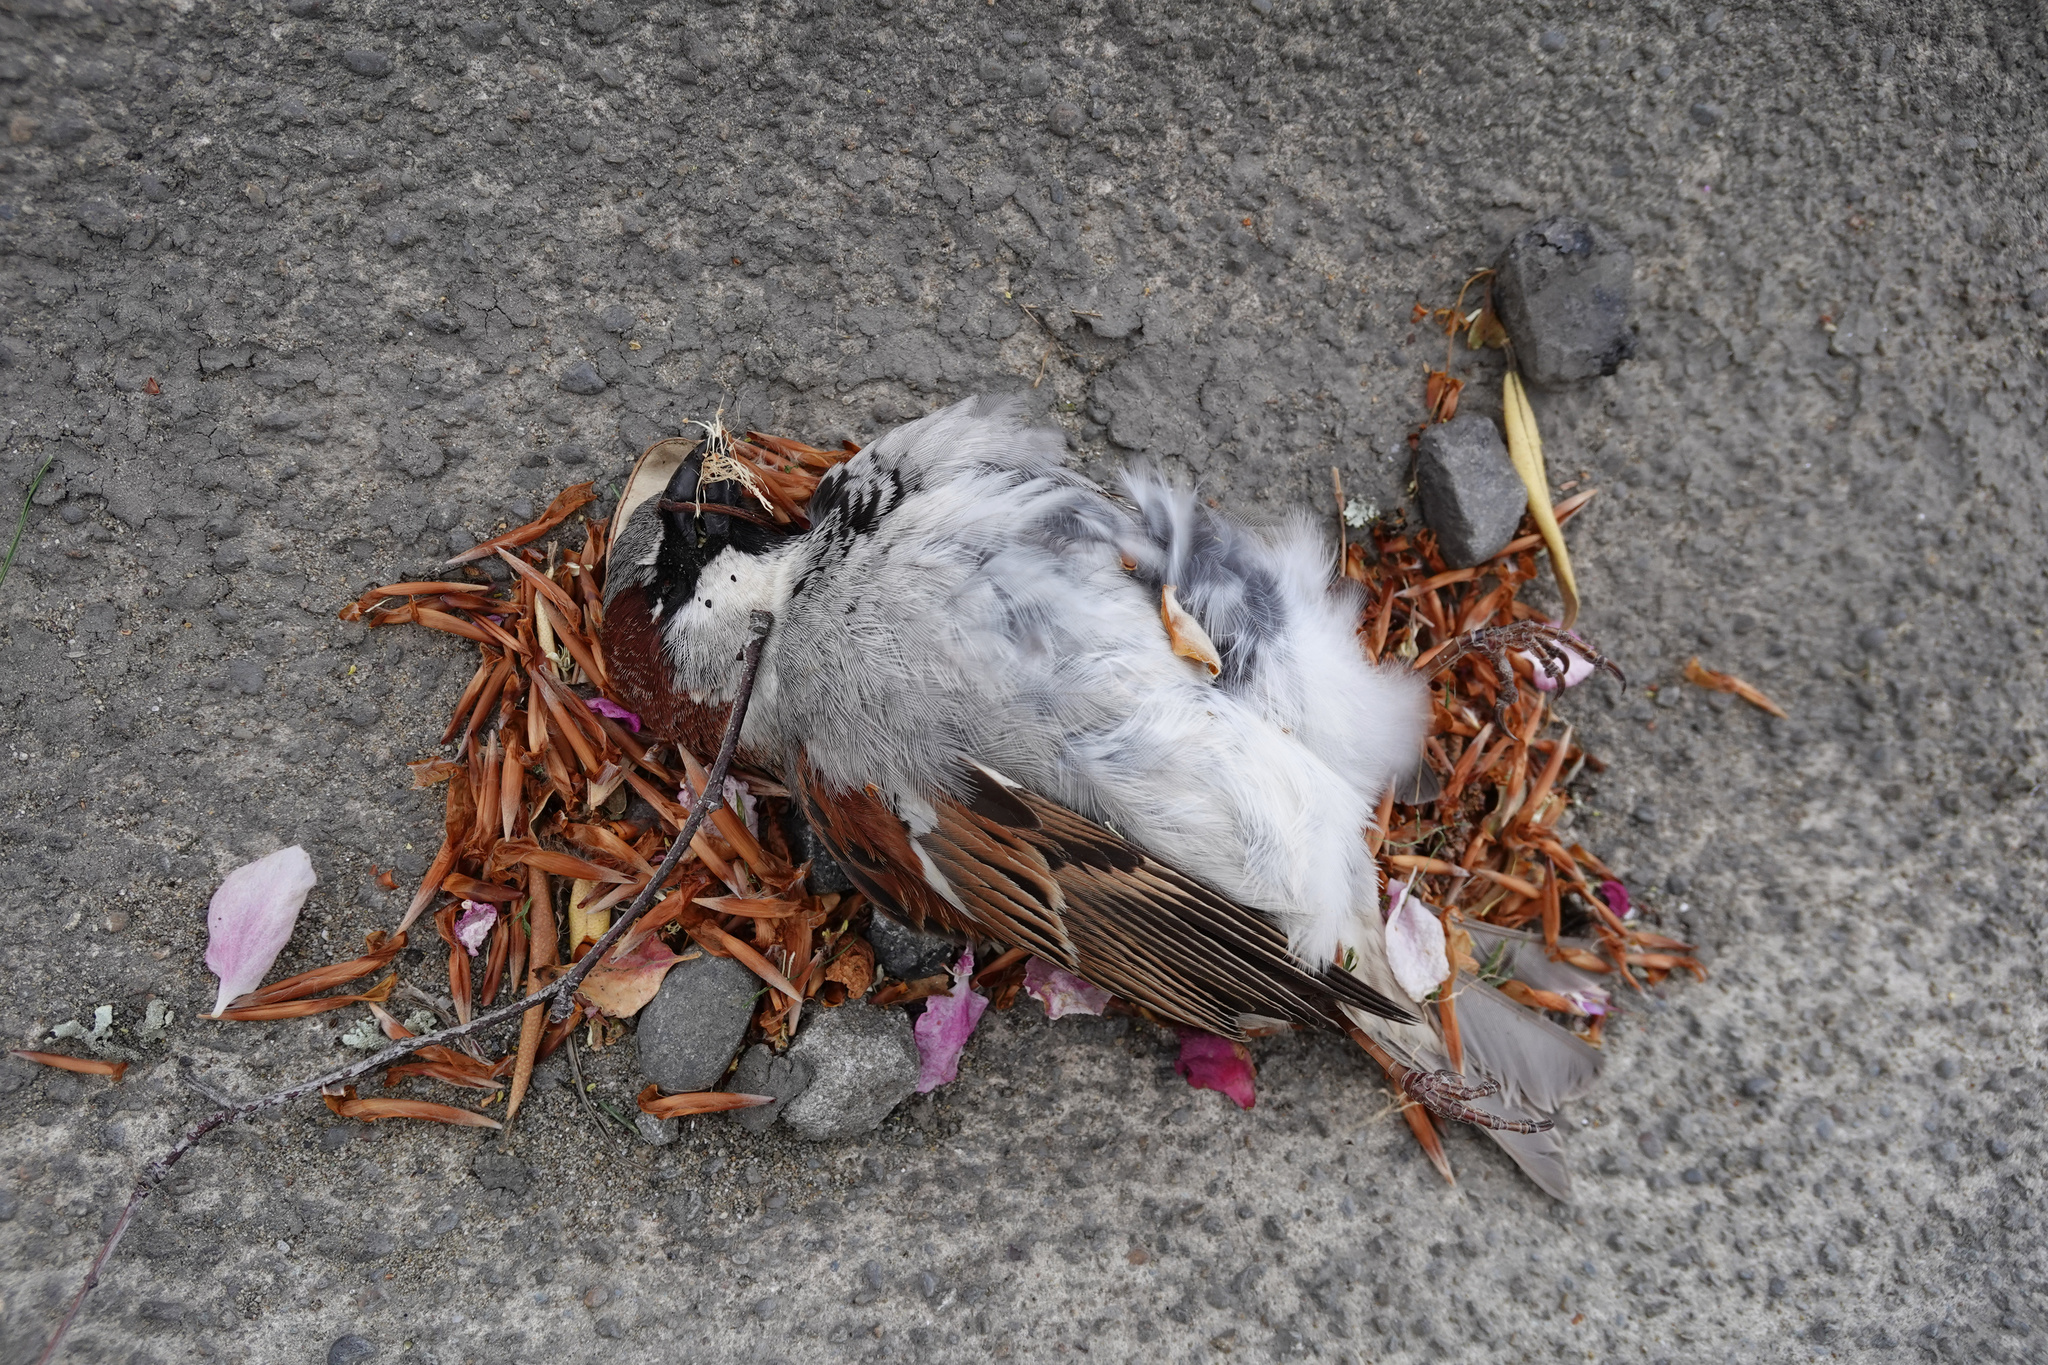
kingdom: Animalia
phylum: Chordata
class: Aves
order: Passeriformes
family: Passeridae
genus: Passer
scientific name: Passer domesticus
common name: House sparrow
